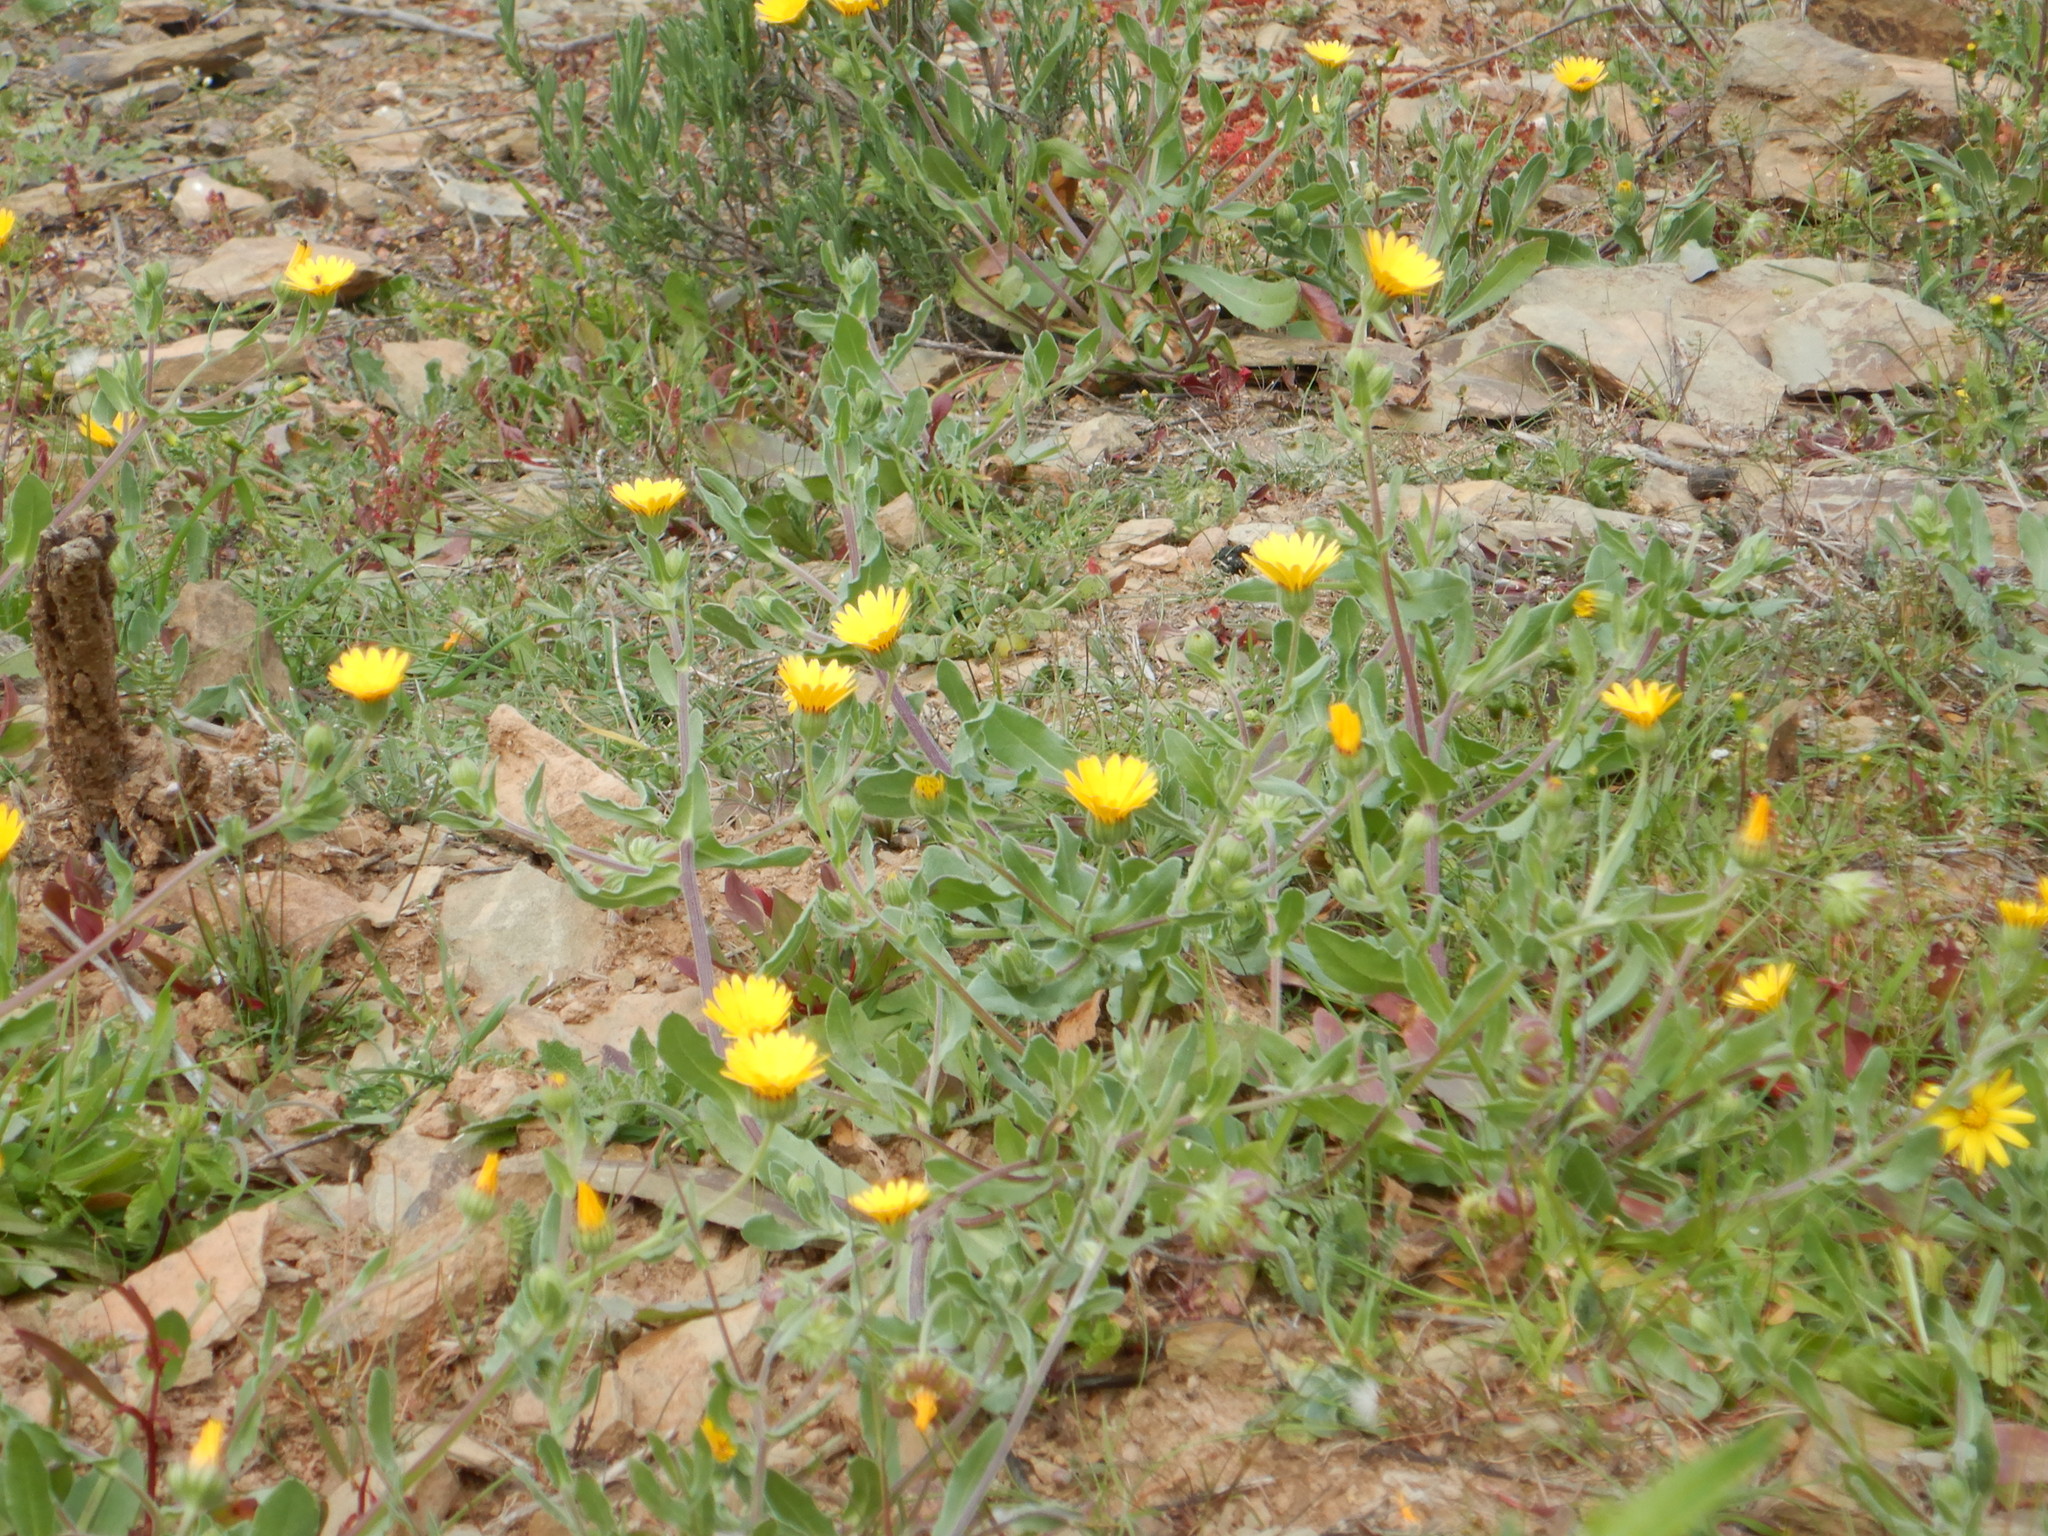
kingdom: Plantae
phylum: Tracheophyta
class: Magnoliopsida
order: Asterales
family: Asteraceae
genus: Calendula
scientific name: Calendula arvensis
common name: Field marigold
